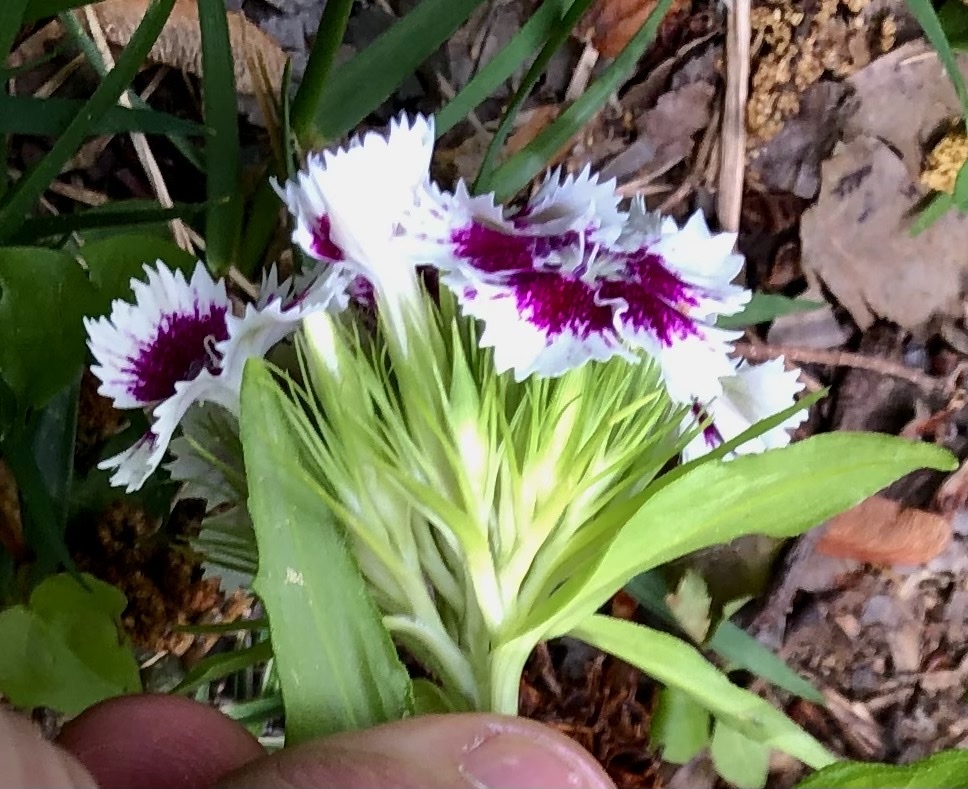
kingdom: Plantae
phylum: Tracheophyta
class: Magnoliopsida
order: Caryophyllales
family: Caryophyllaceae
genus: Dianthus
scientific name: Dianthus barbatus
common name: Sweet-william
